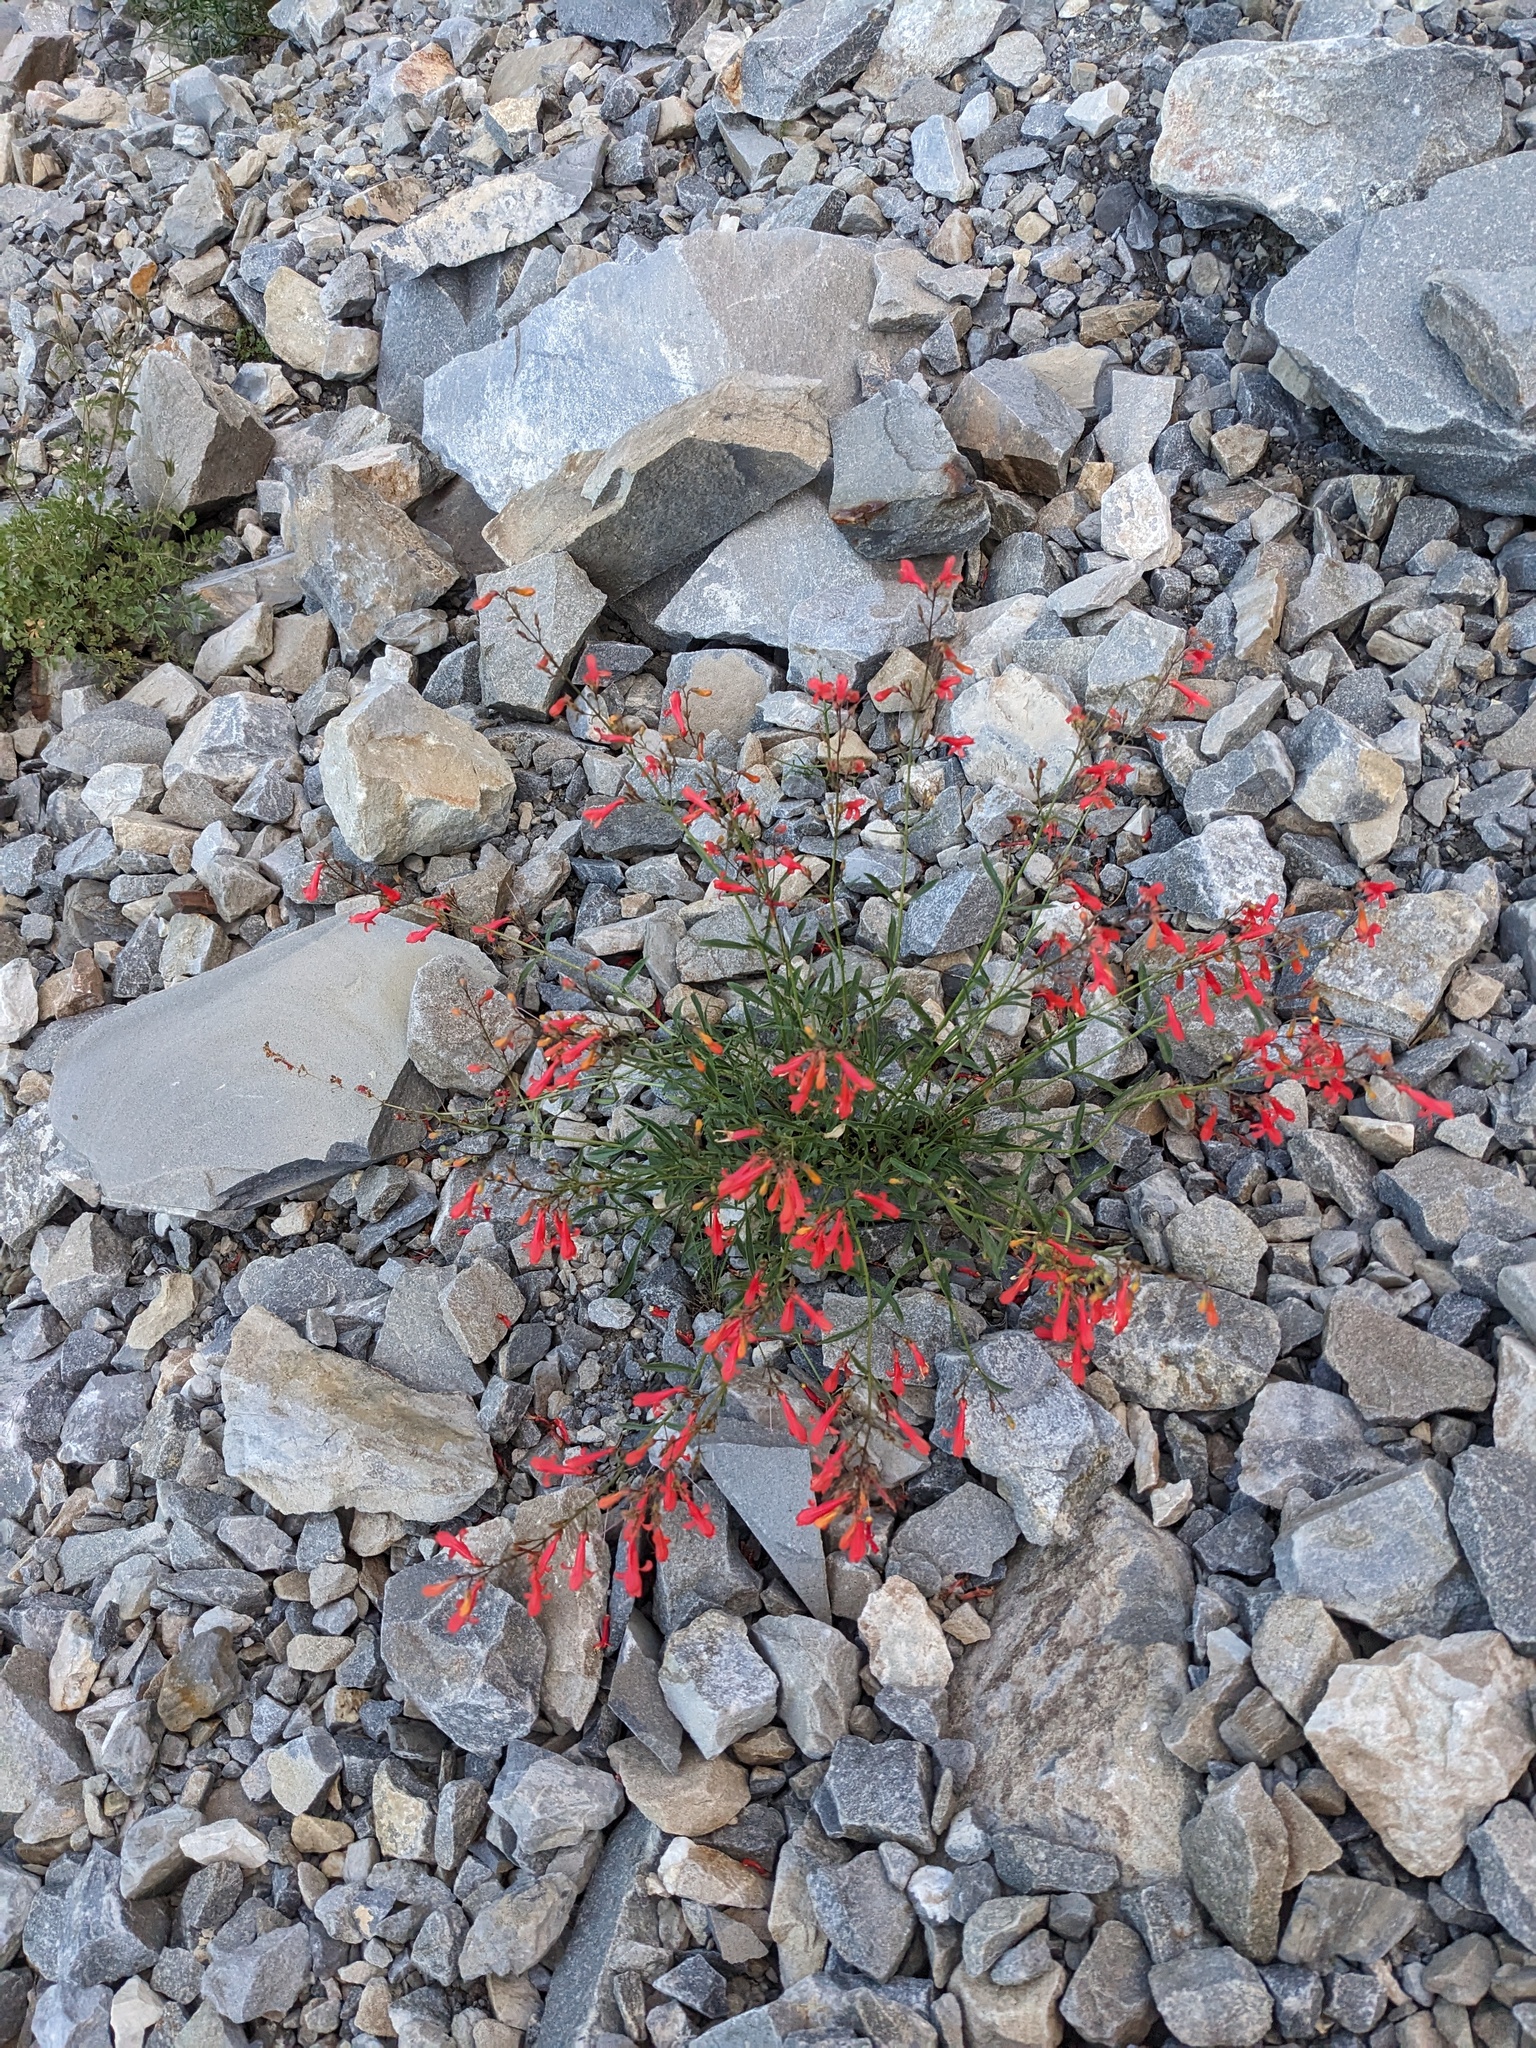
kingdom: Plantae
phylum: Tracheophyta
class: Magnoliopsida
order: Lamiales
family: Plantaginaceae
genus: Penstemon
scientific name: Penstemon rostriflorus
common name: Bridges's penstemon
